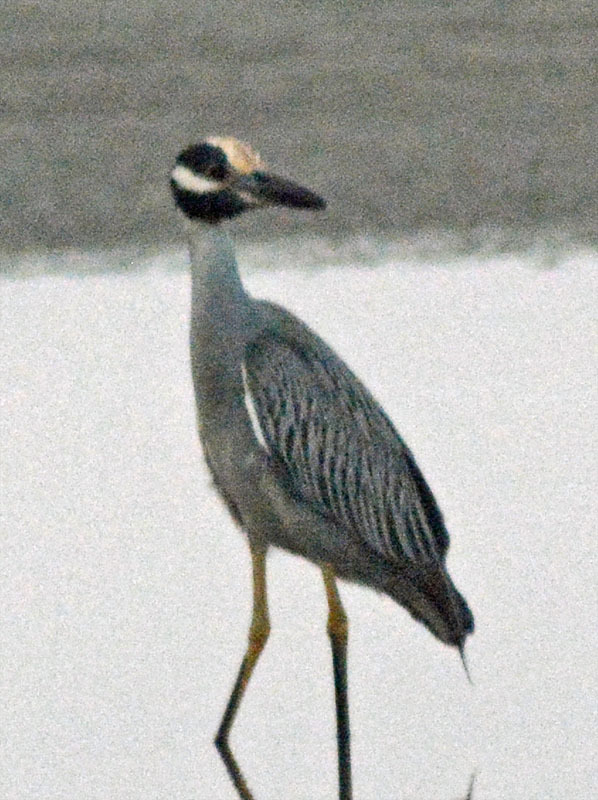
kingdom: Animalia
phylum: Chordata
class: Aves
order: Pelecaniformes
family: Ardeidae
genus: Nyctanassa
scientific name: Nyctanassa violacea
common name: Yellow-crowned night heron
